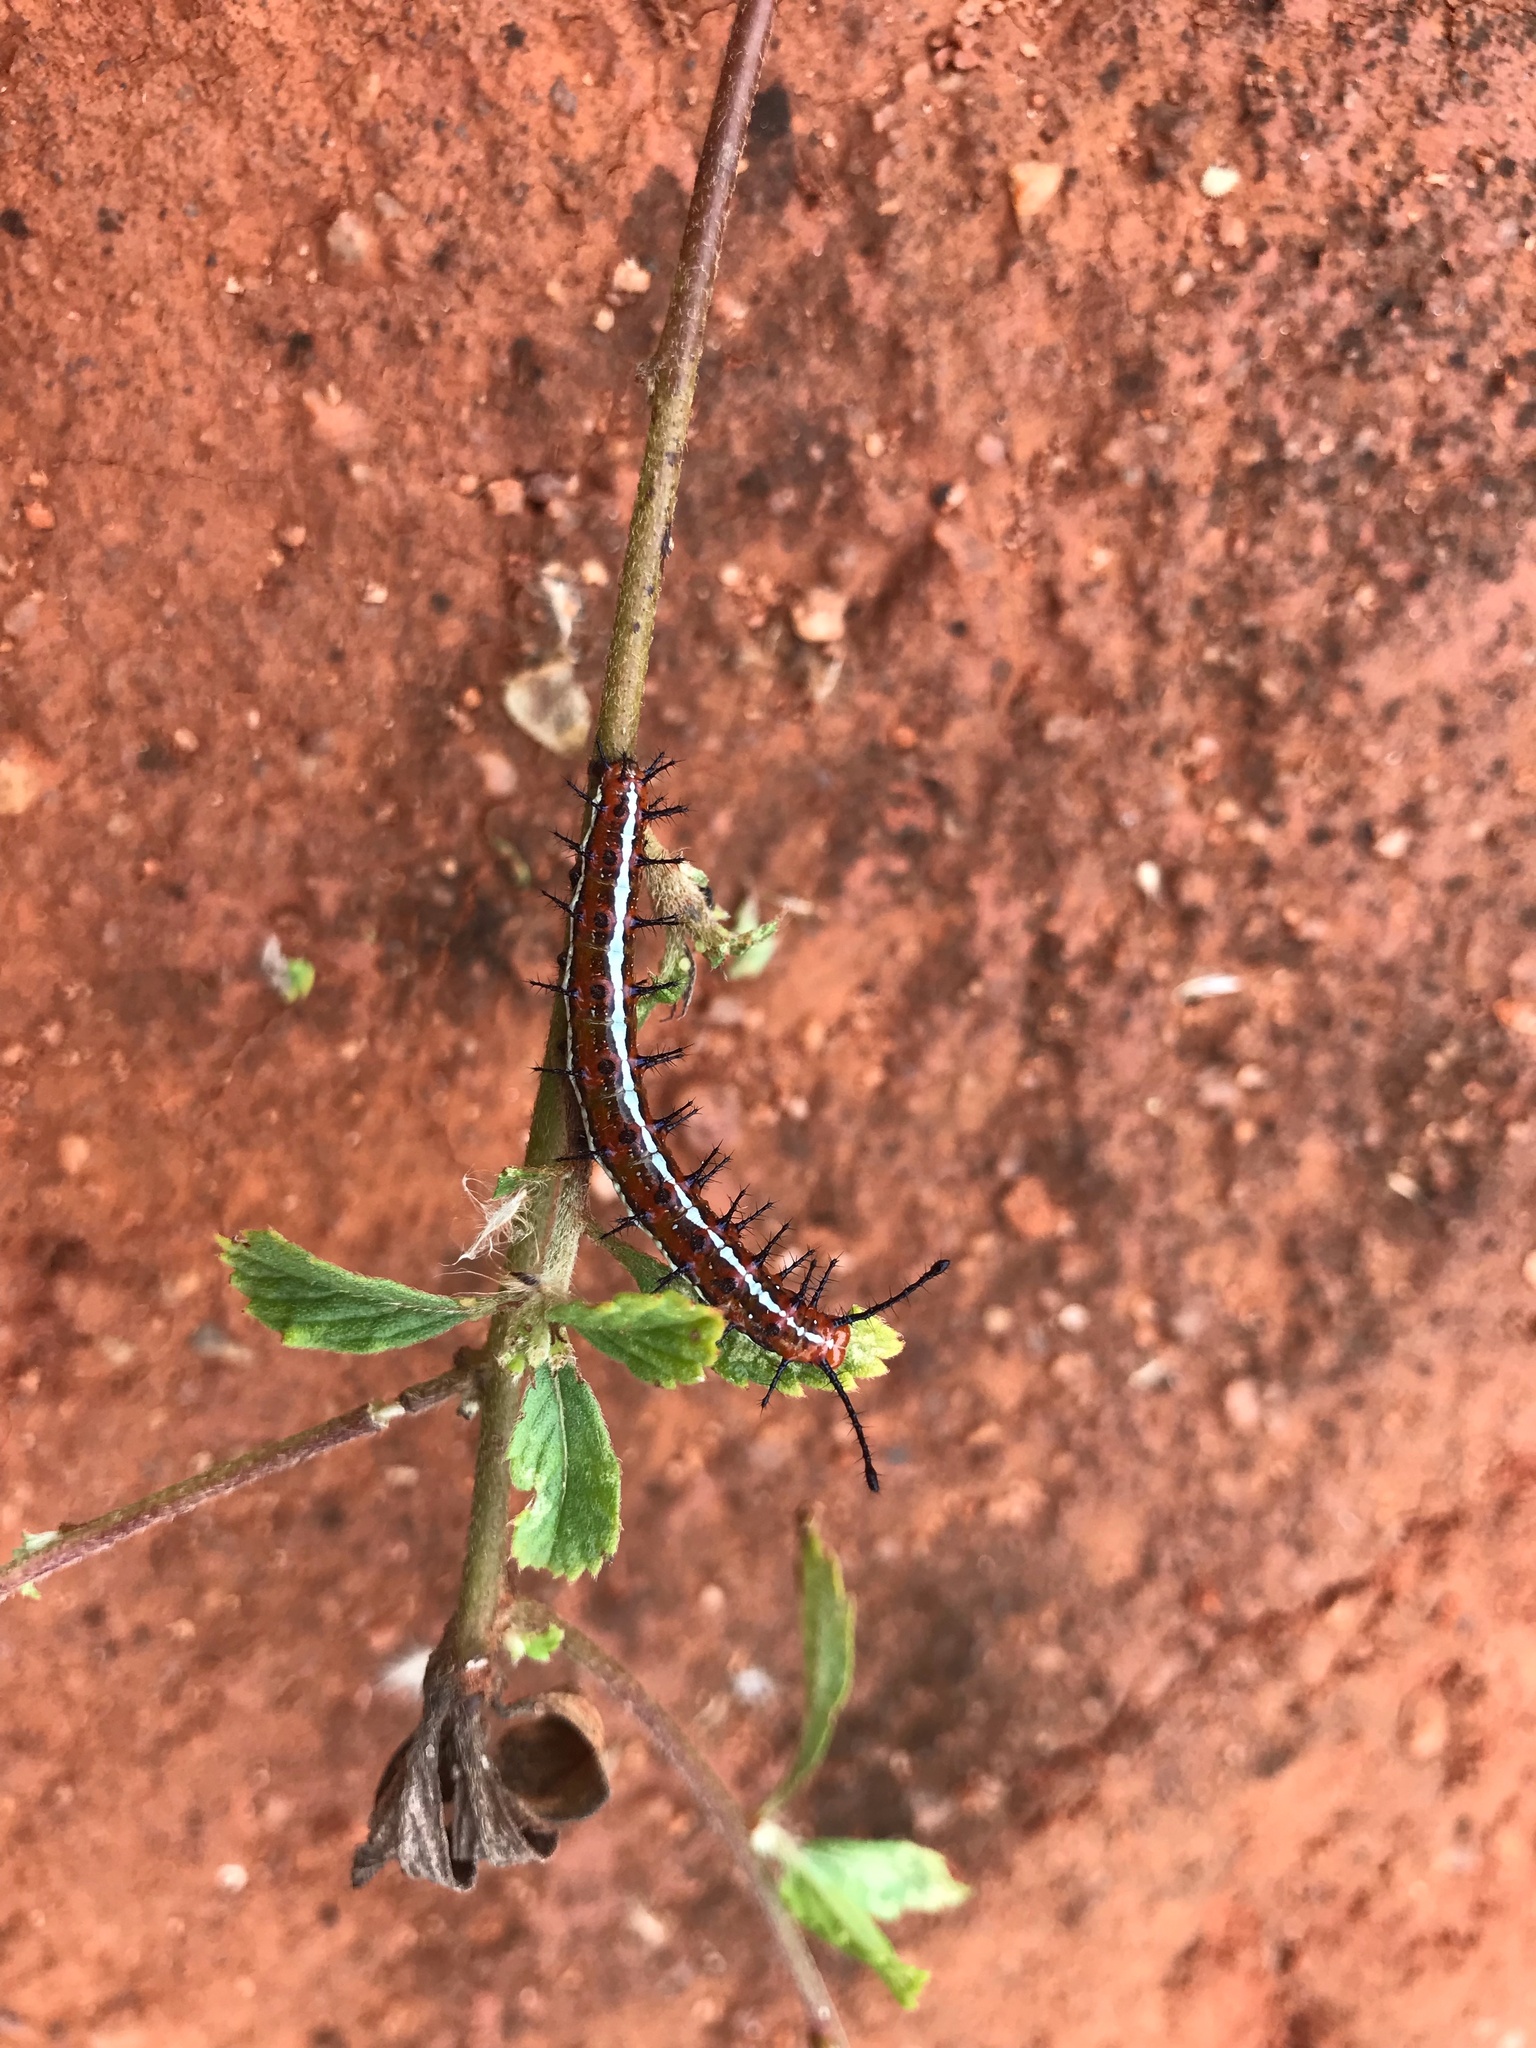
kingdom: Animalia
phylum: Arthropoda
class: Insecta
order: Lepidoptera
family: Nymphalidae
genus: Euptoieta
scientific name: Euptoieta hegesia
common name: Mexican fritillary
